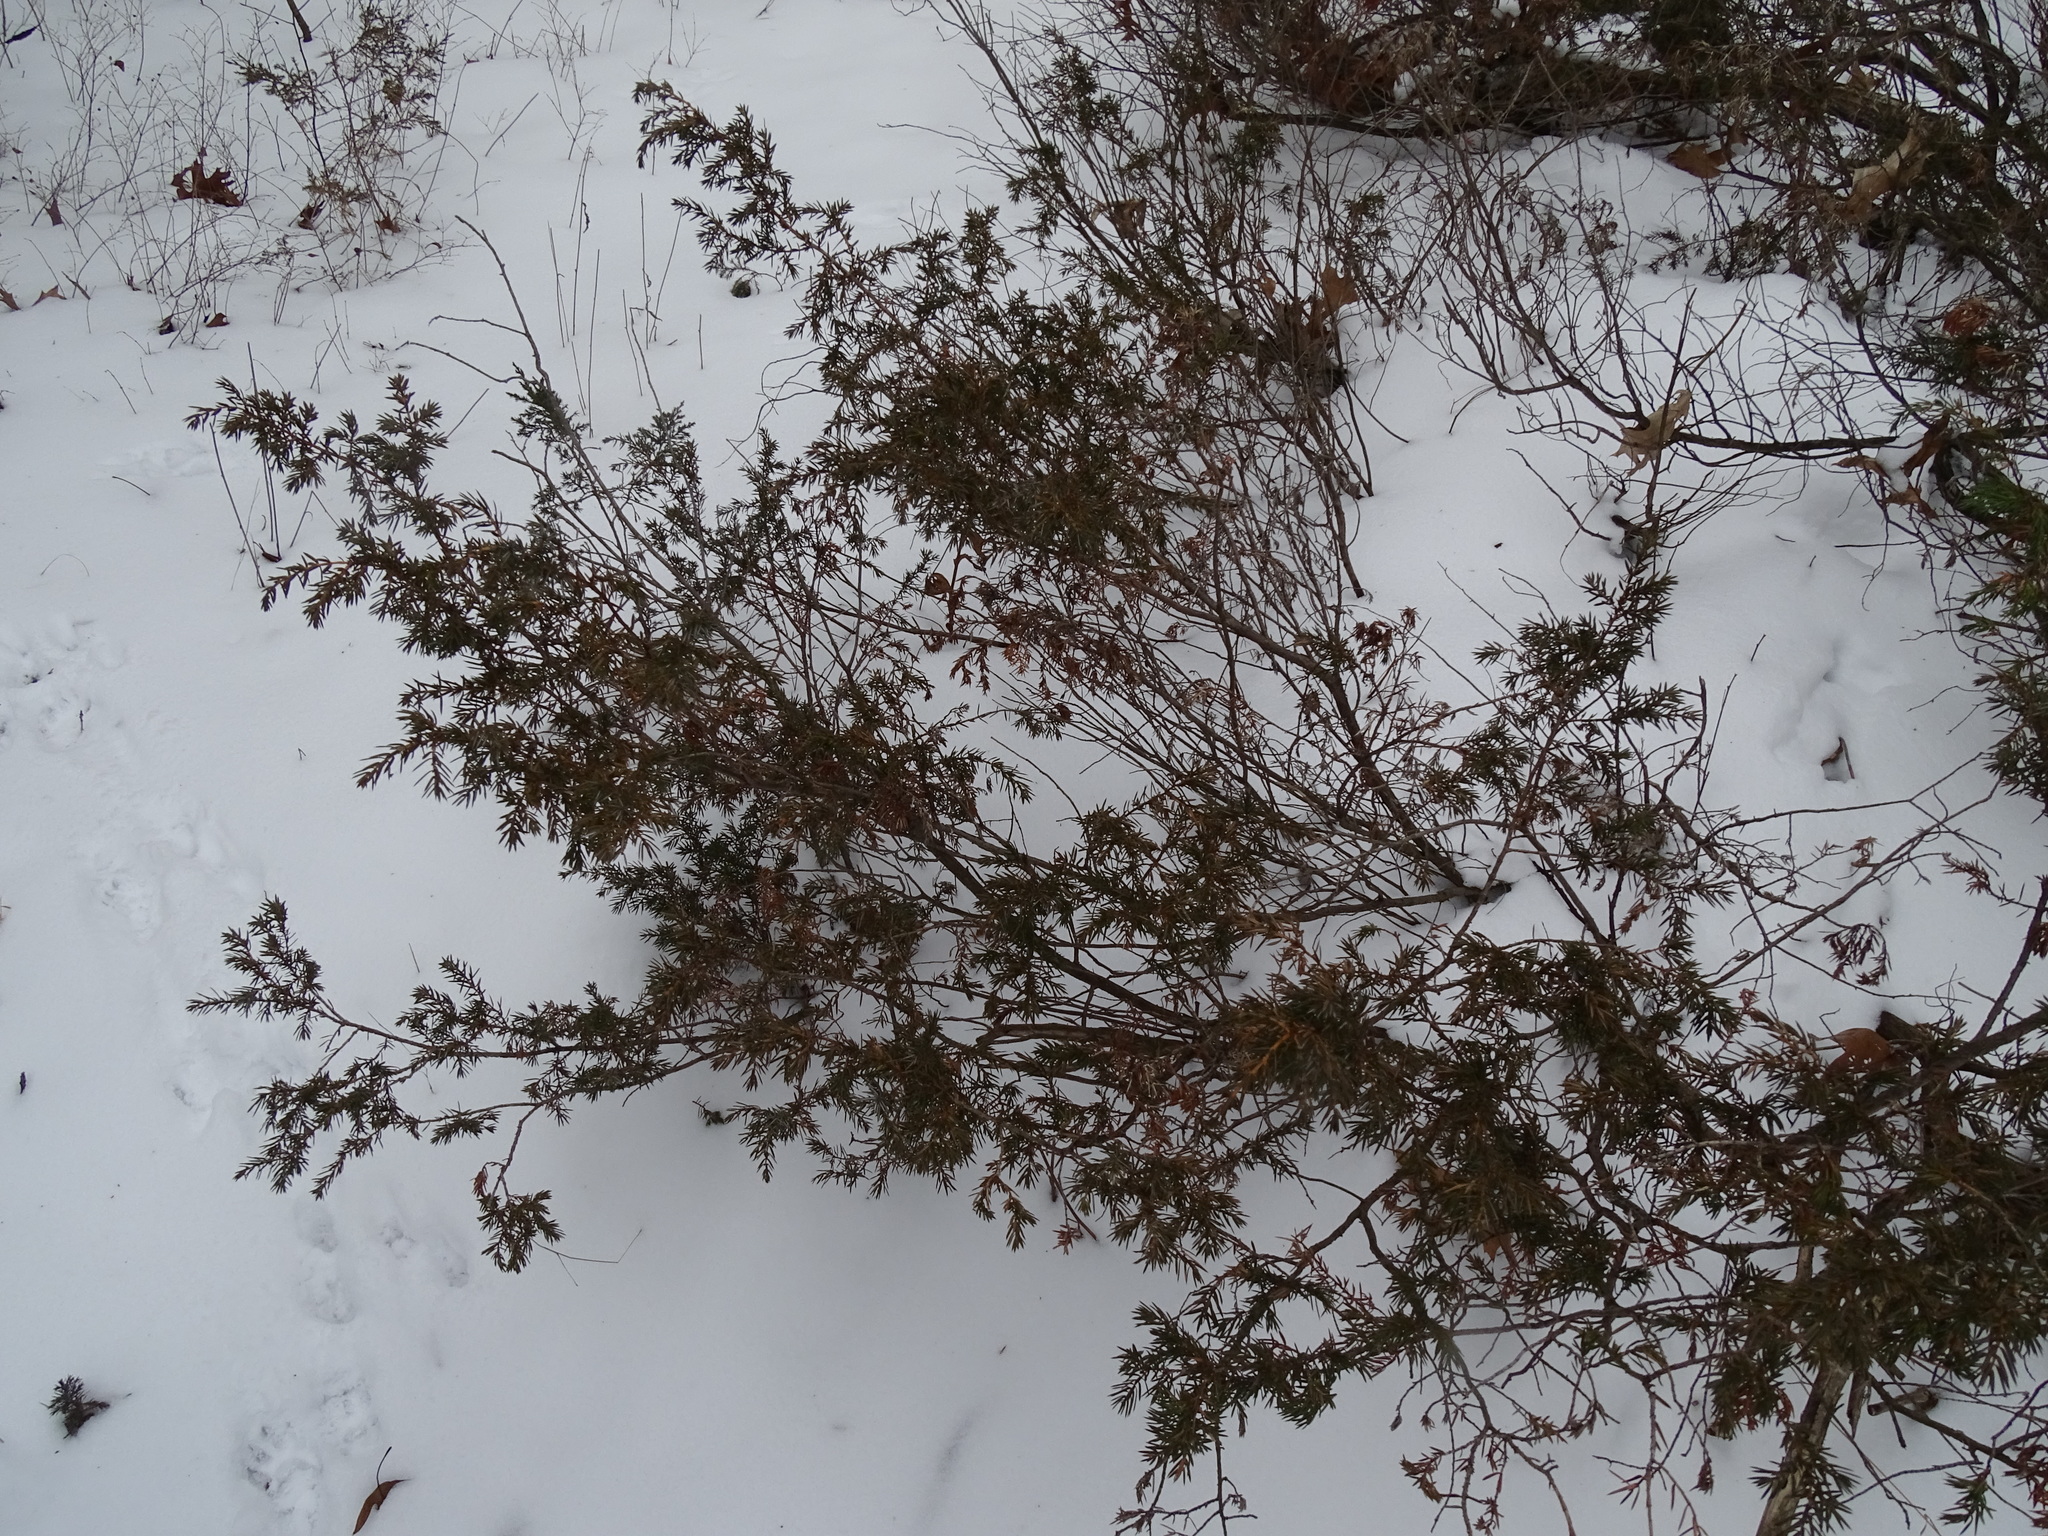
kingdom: Plantae
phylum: Tracheophyta
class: Pinopsida
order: Pinales
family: Cupressaceae
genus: Juniperus
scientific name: Juniperus communis
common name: Common juniper
